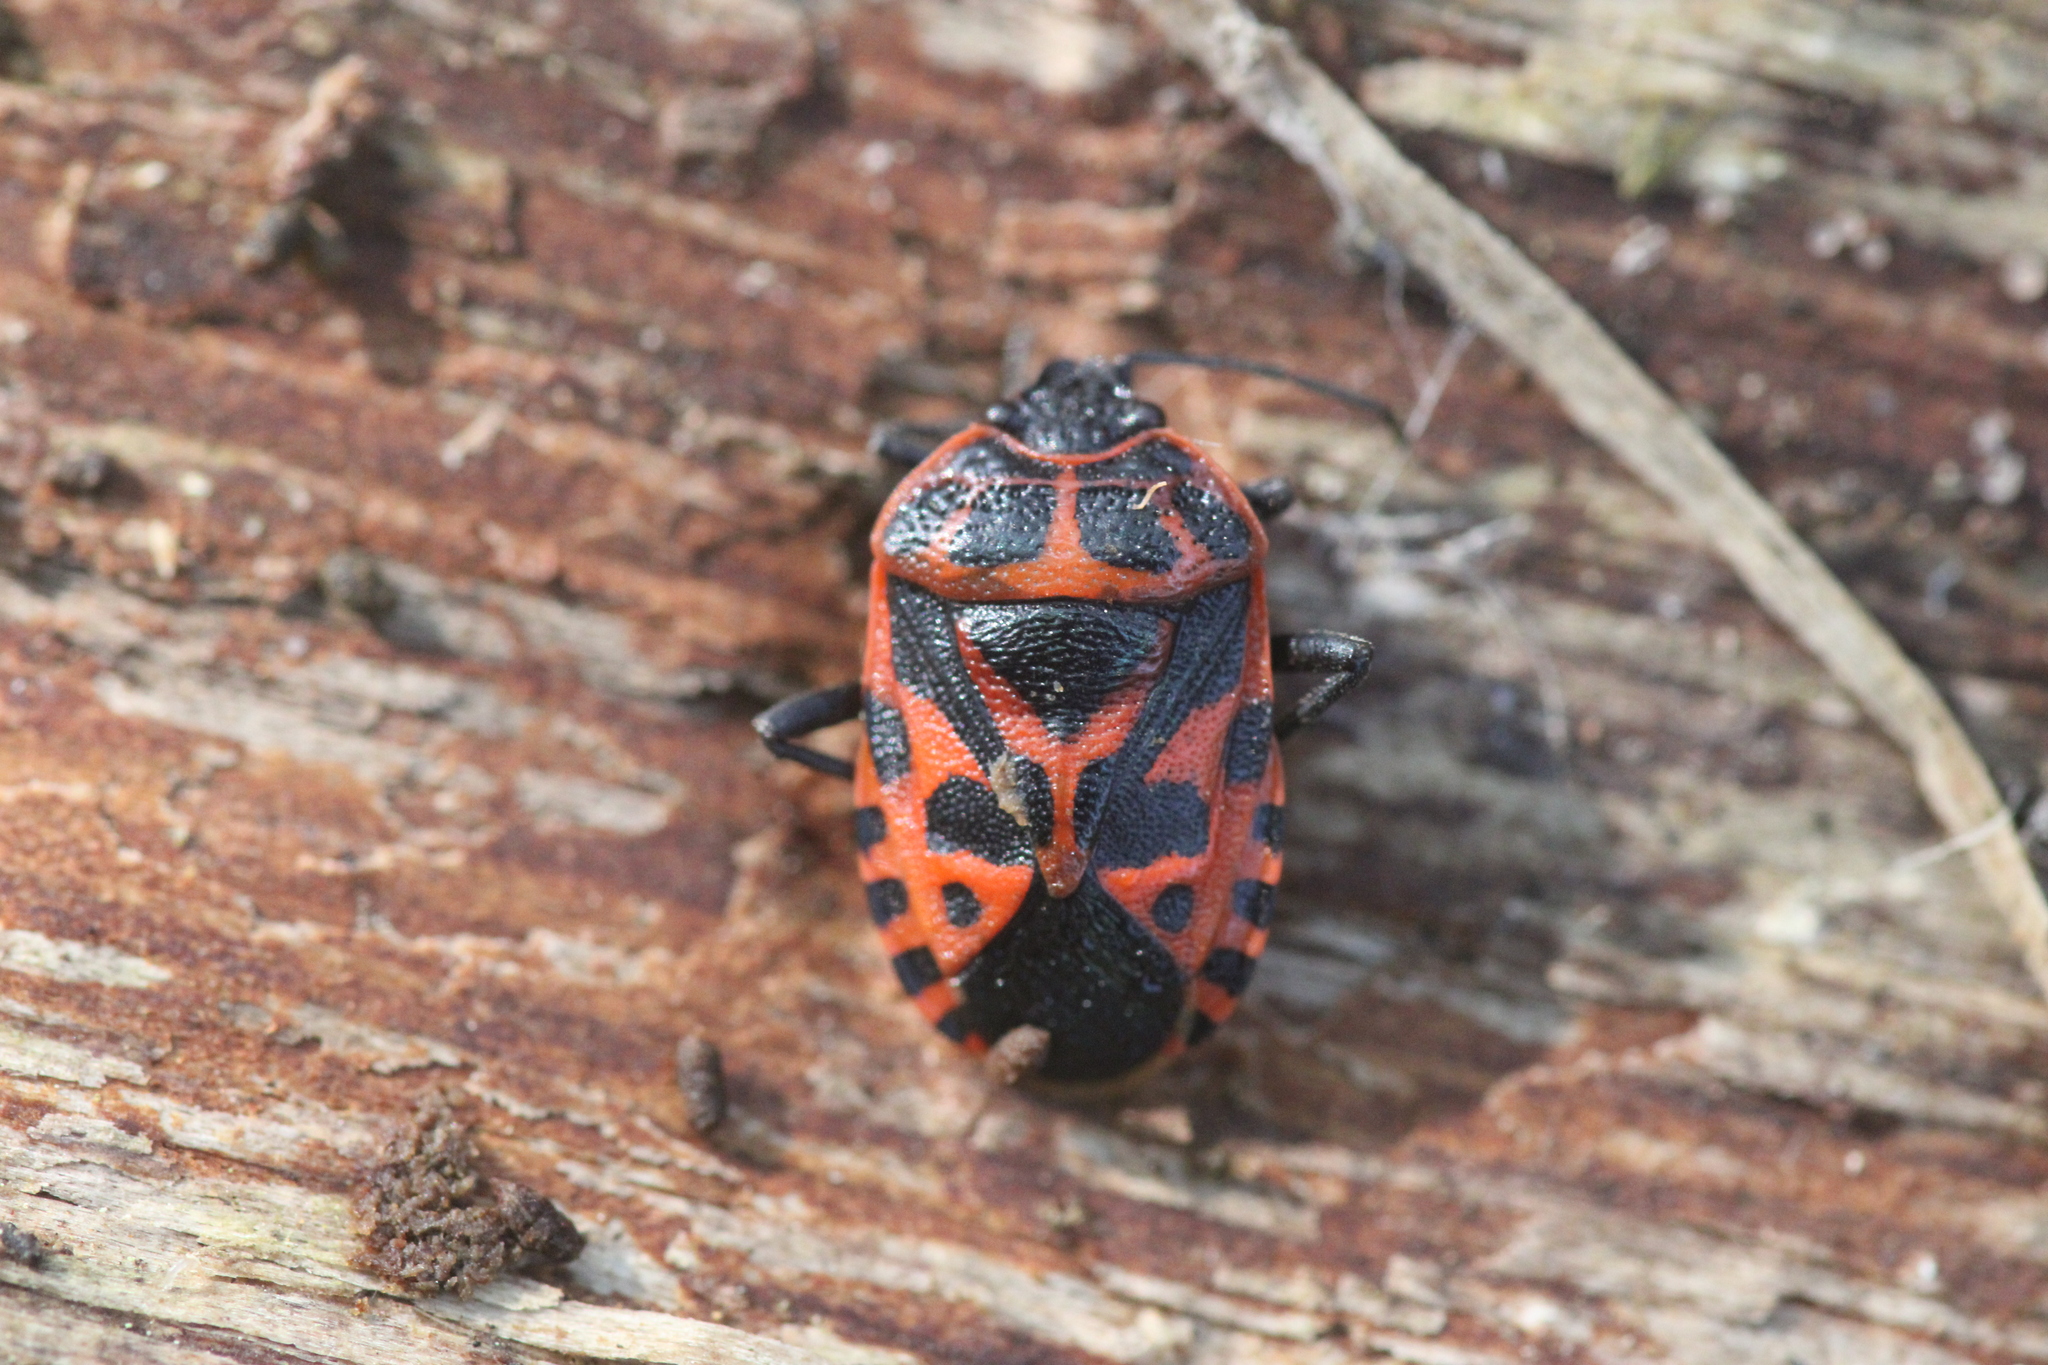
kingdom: Animalia
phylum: Arthropoda
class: Insecta
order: Hemiptera
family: Pentatomidae
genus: Eurydema
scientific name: Eurydema ventralis
